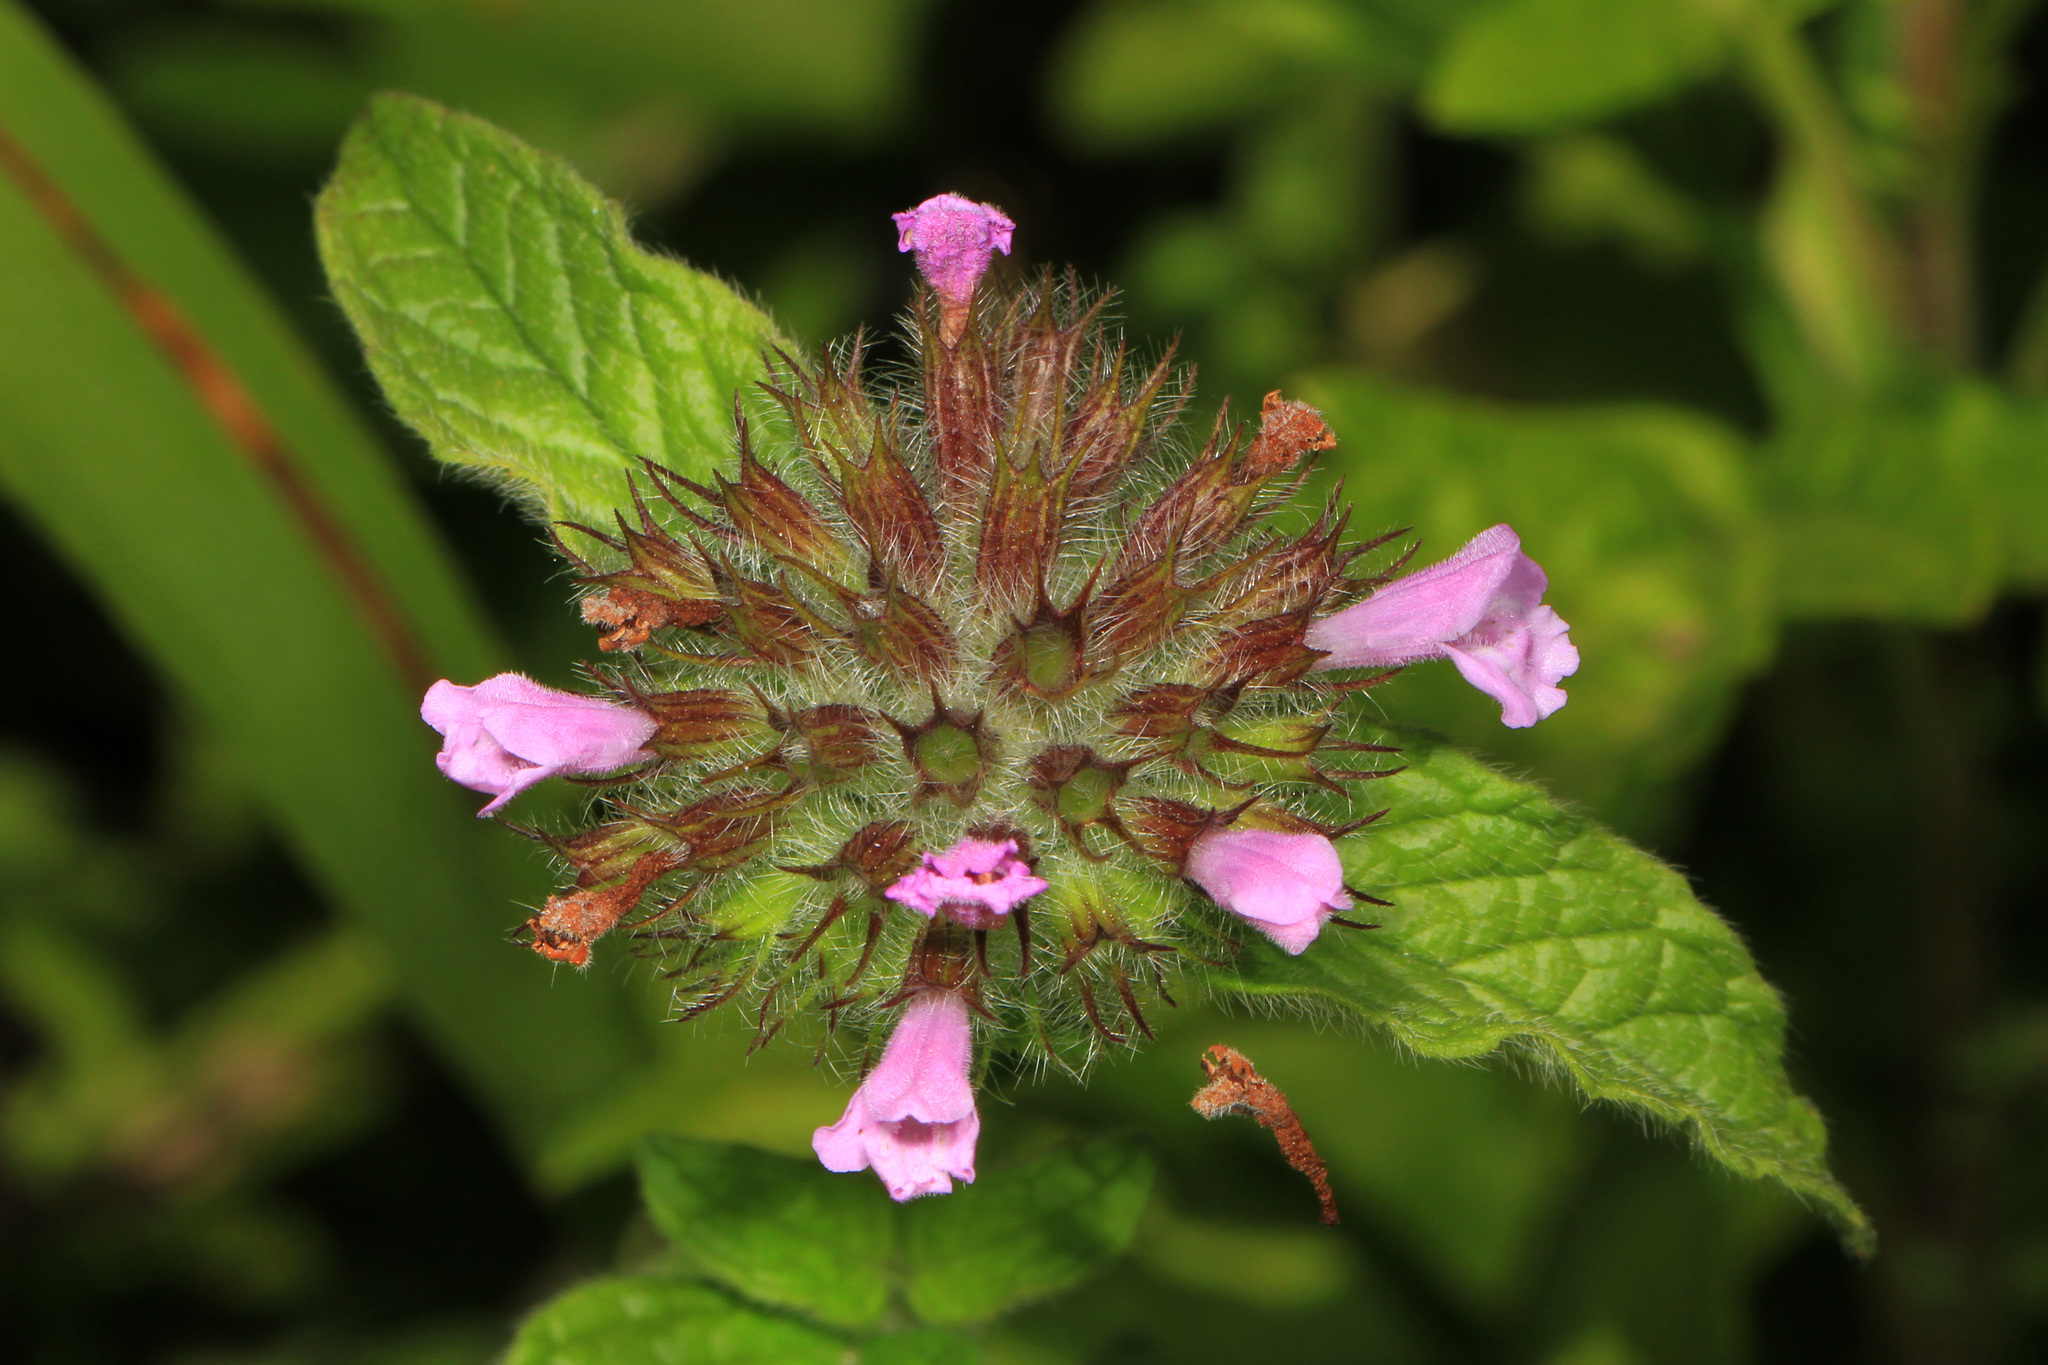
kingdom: Plantae
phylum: Tracheophyta
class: Magnoliopsida
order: Lamiales
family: Lamiaceae
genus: Clinopodium
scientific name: Clinopodium vulgare
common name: Wild basil
